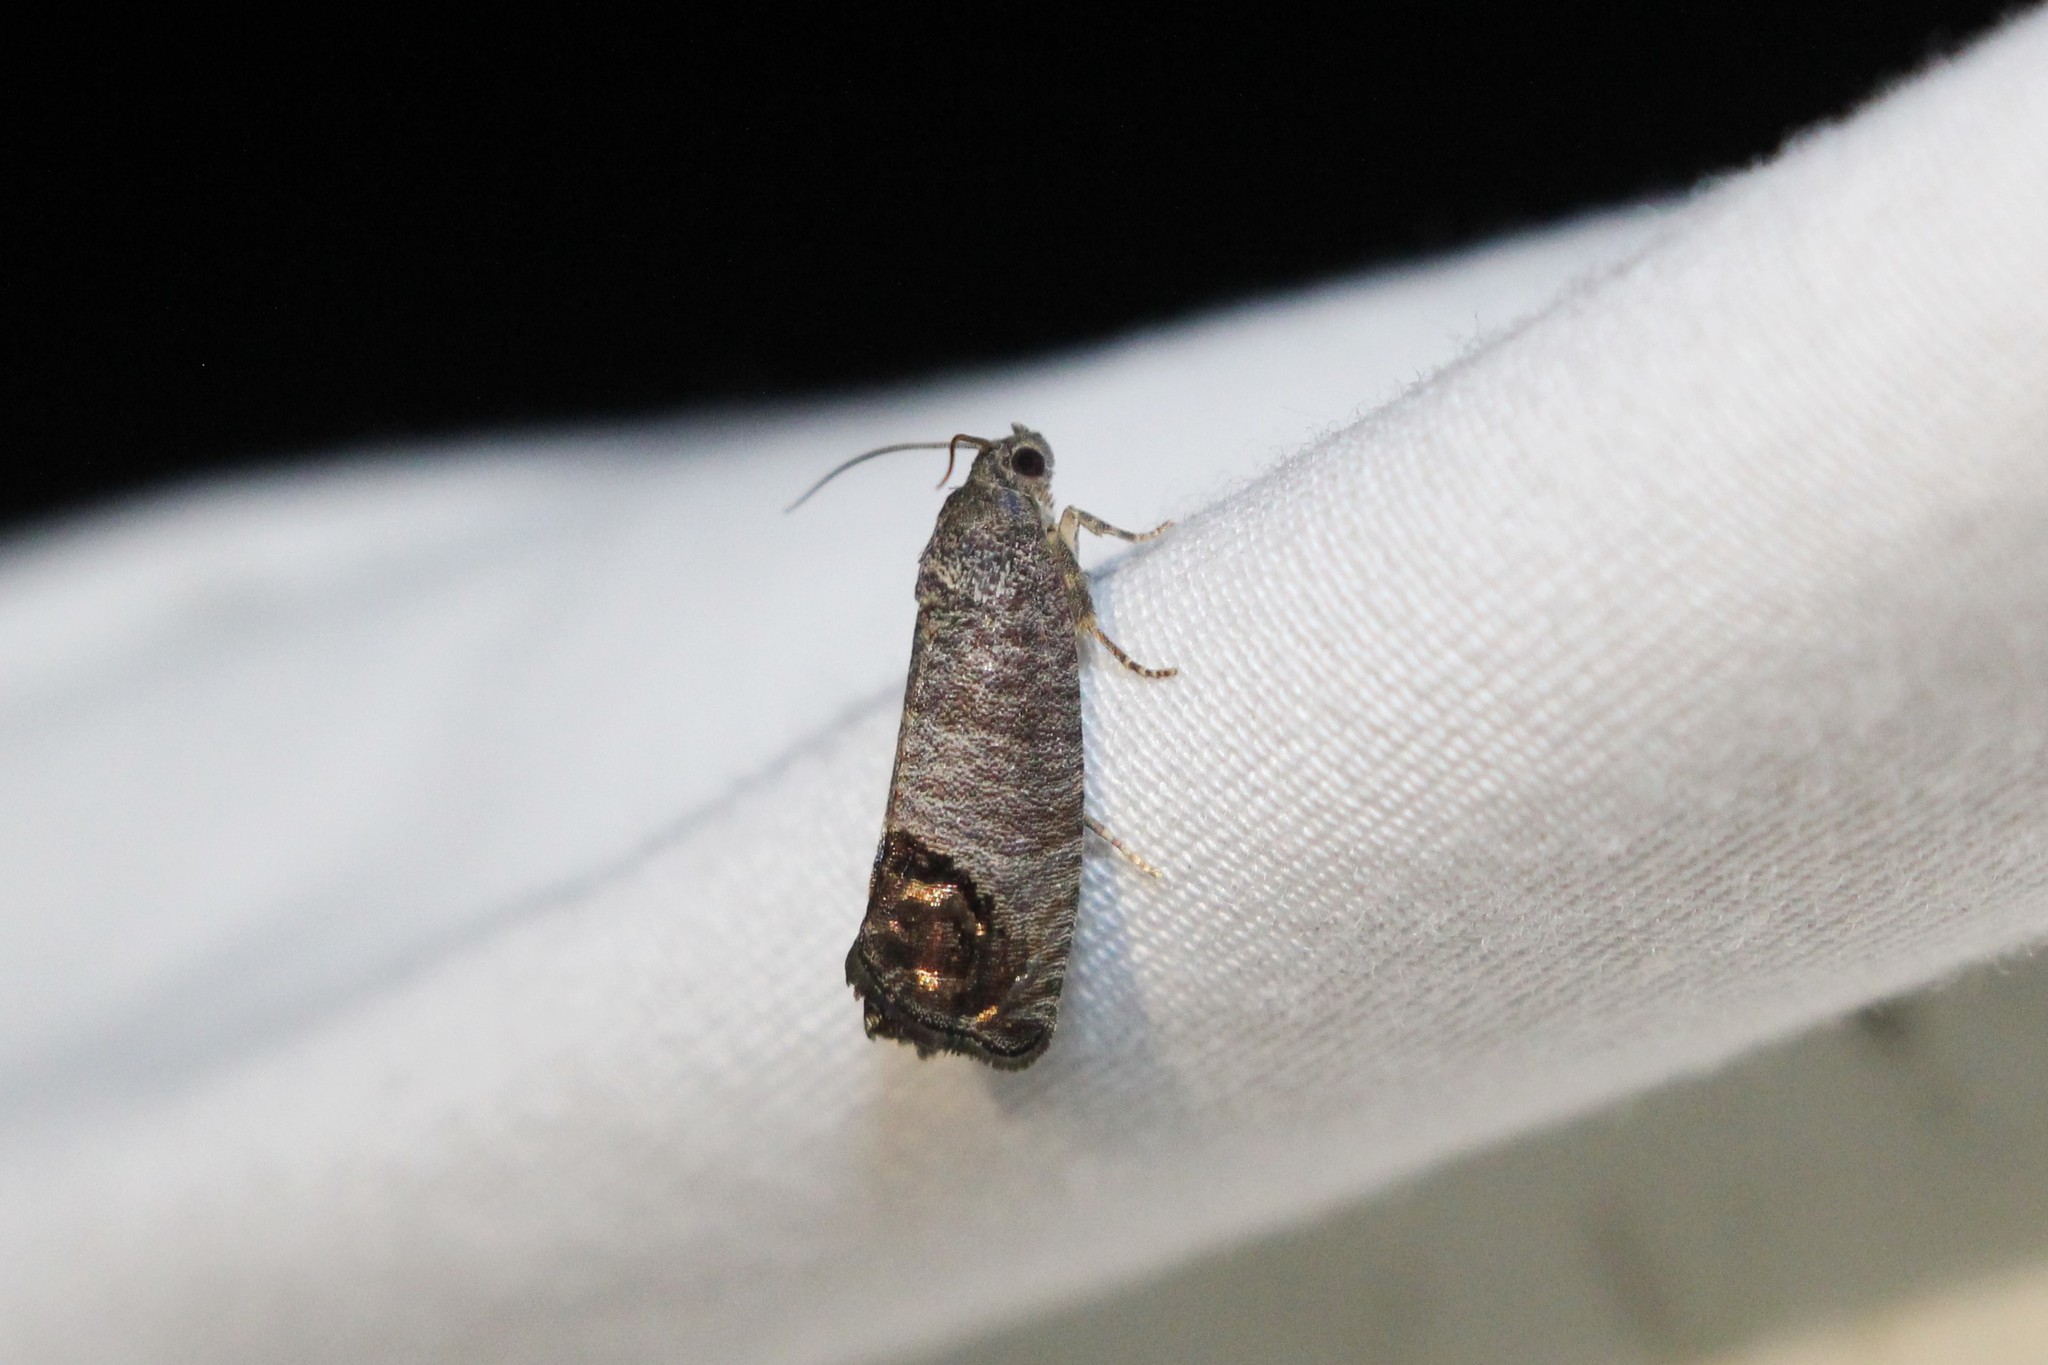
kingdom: Animalia
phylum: Arthropoda
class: Insecta
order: Lepidoptera
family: Tortricidae
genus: Cydia
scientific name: Cydia pomonella
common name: Codling moth
